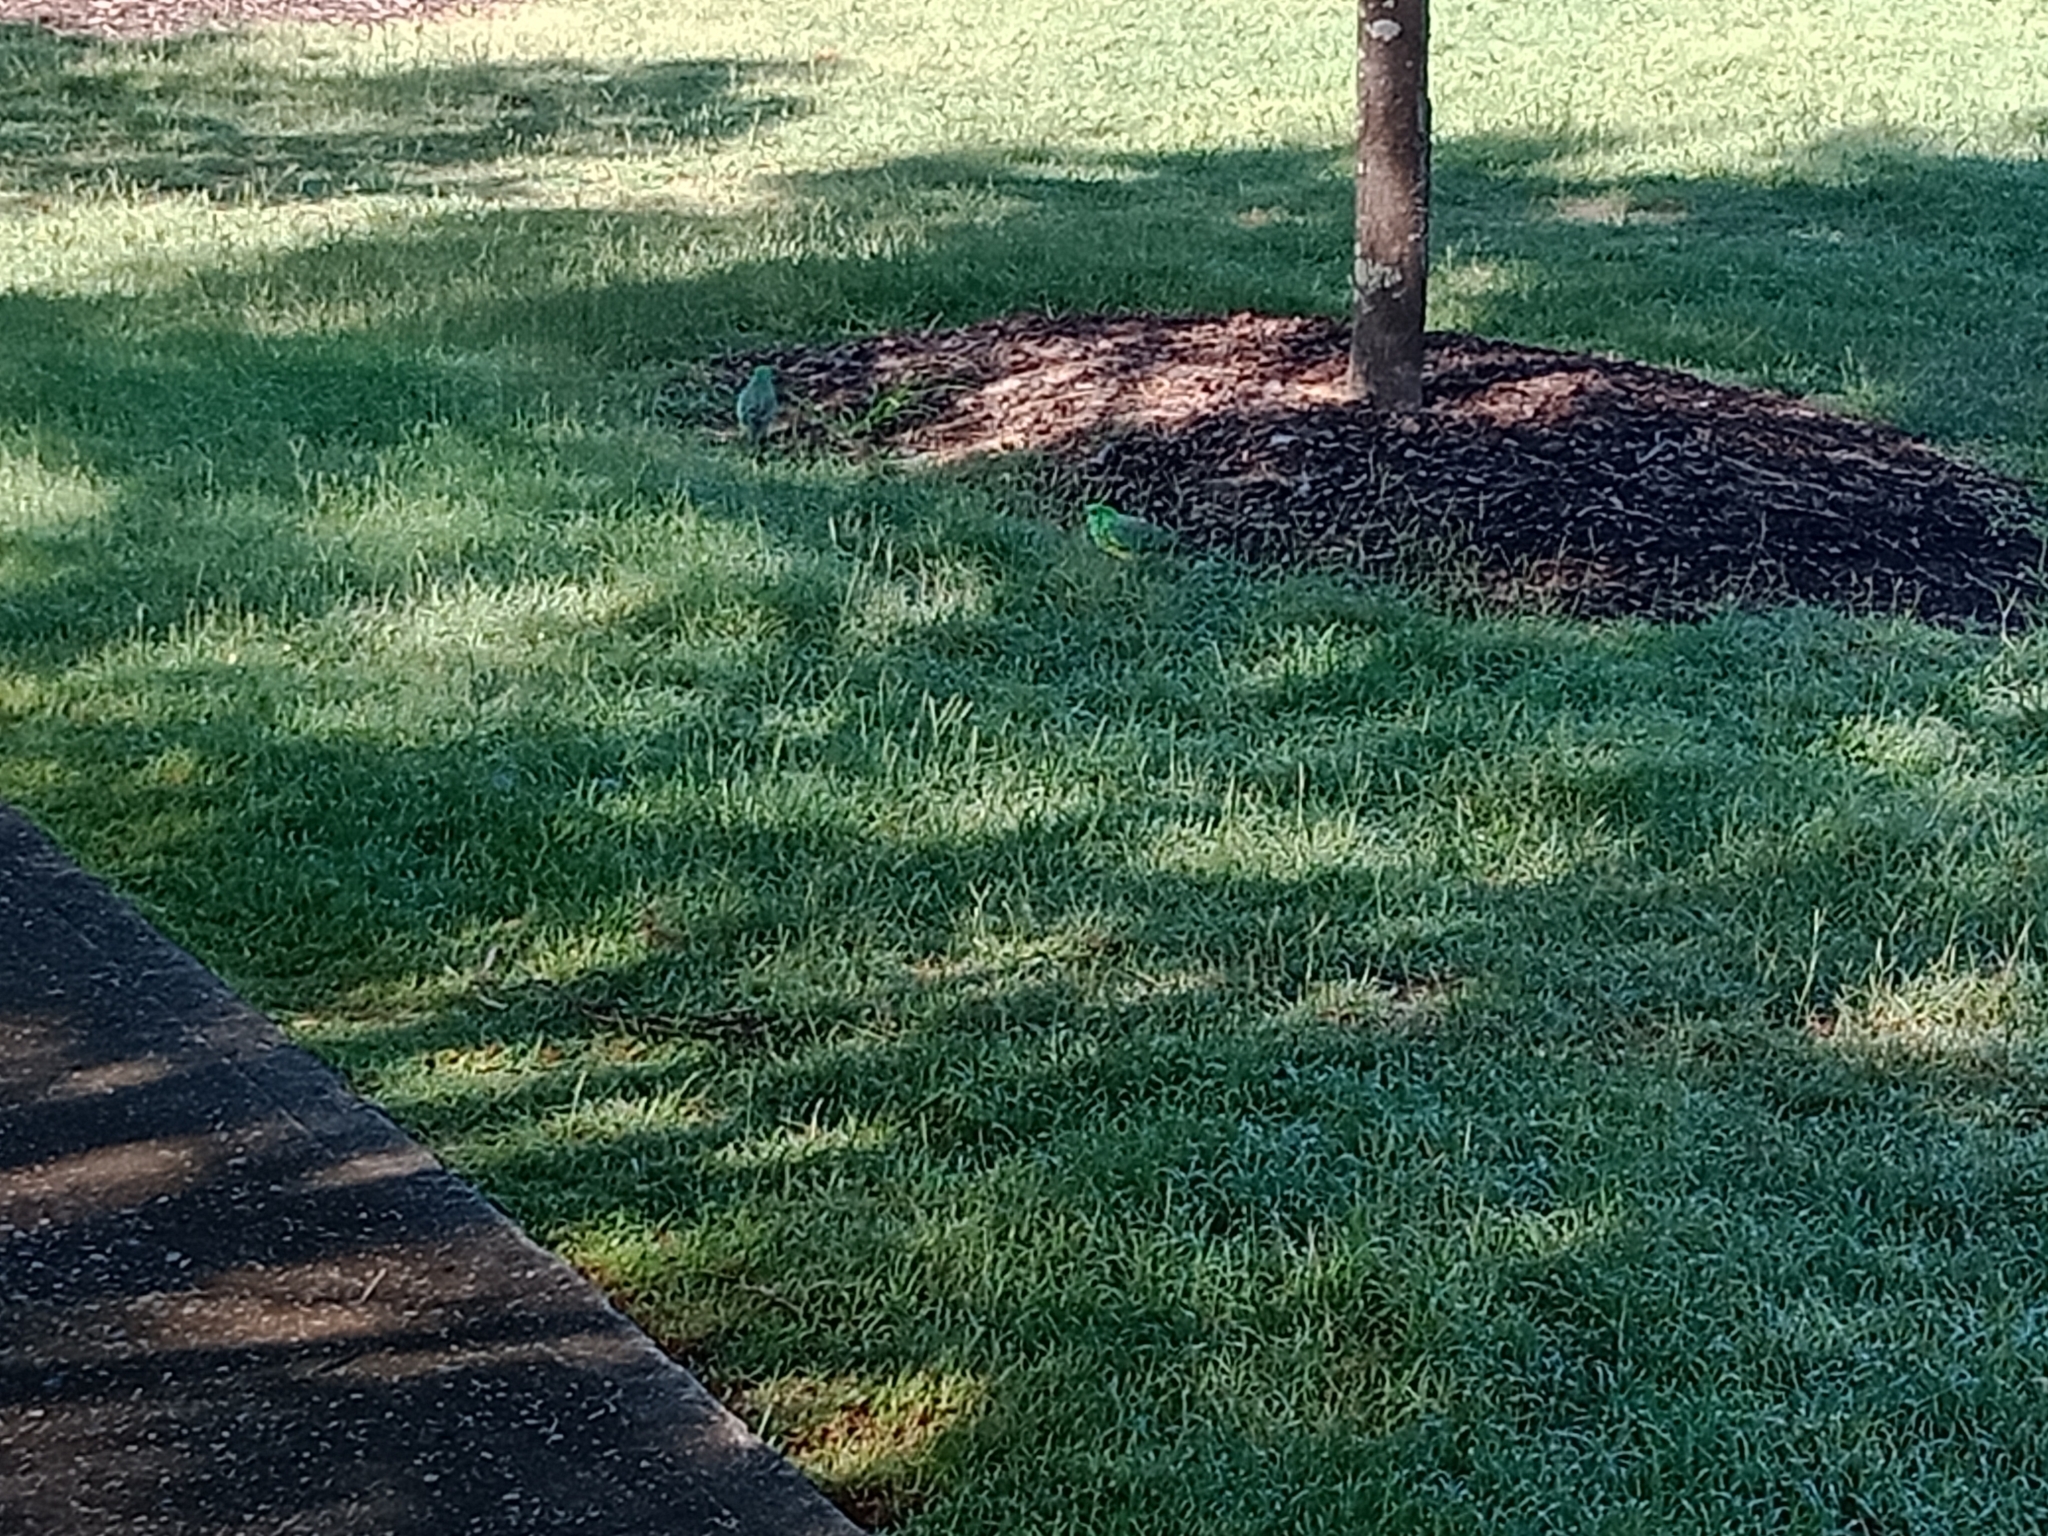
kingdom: Animalia
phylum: Chordata
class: Aves
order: Psittaciformes
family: Psittacidae
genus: Psephotus
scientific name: Psephotus haematonotus
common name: Red-rumped parrot
